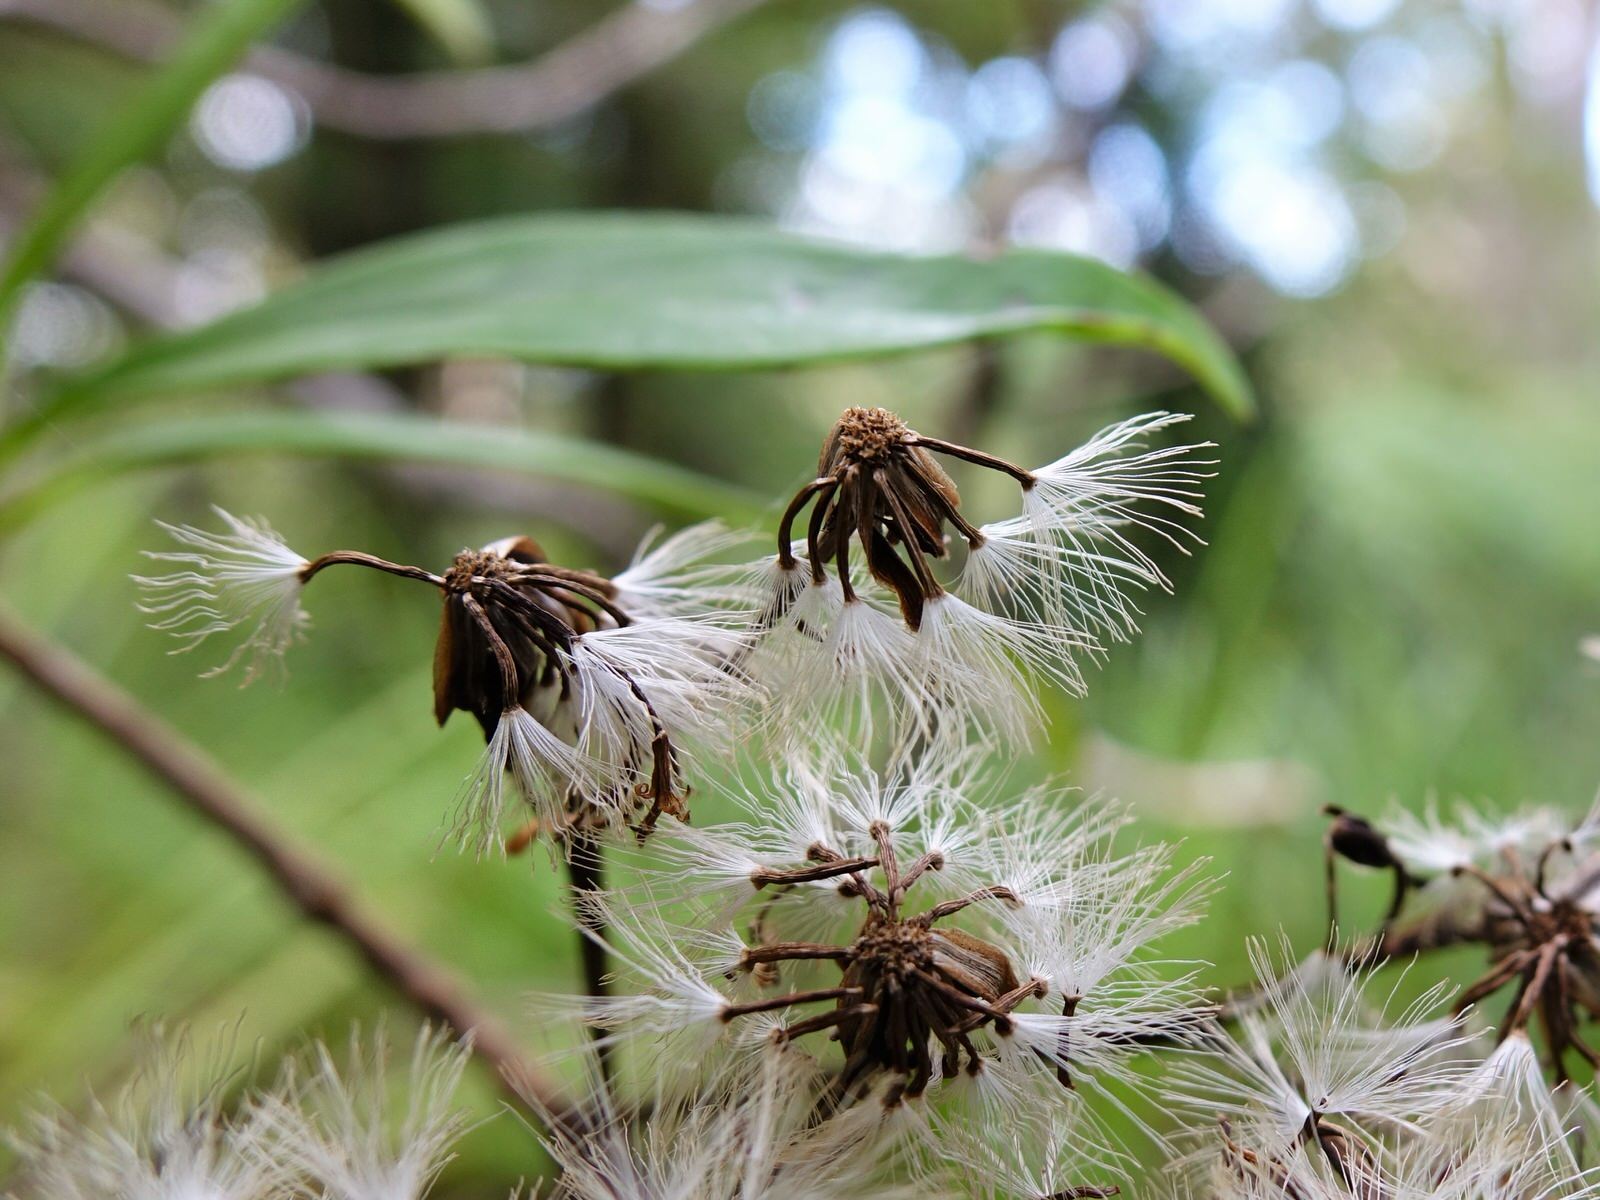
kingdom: Plantae
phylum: Tracheophyta
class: Magnoliopsida
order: Asterales
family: Asteraceae
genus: Brachyglottis
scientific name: Brachyglottis kirkii
